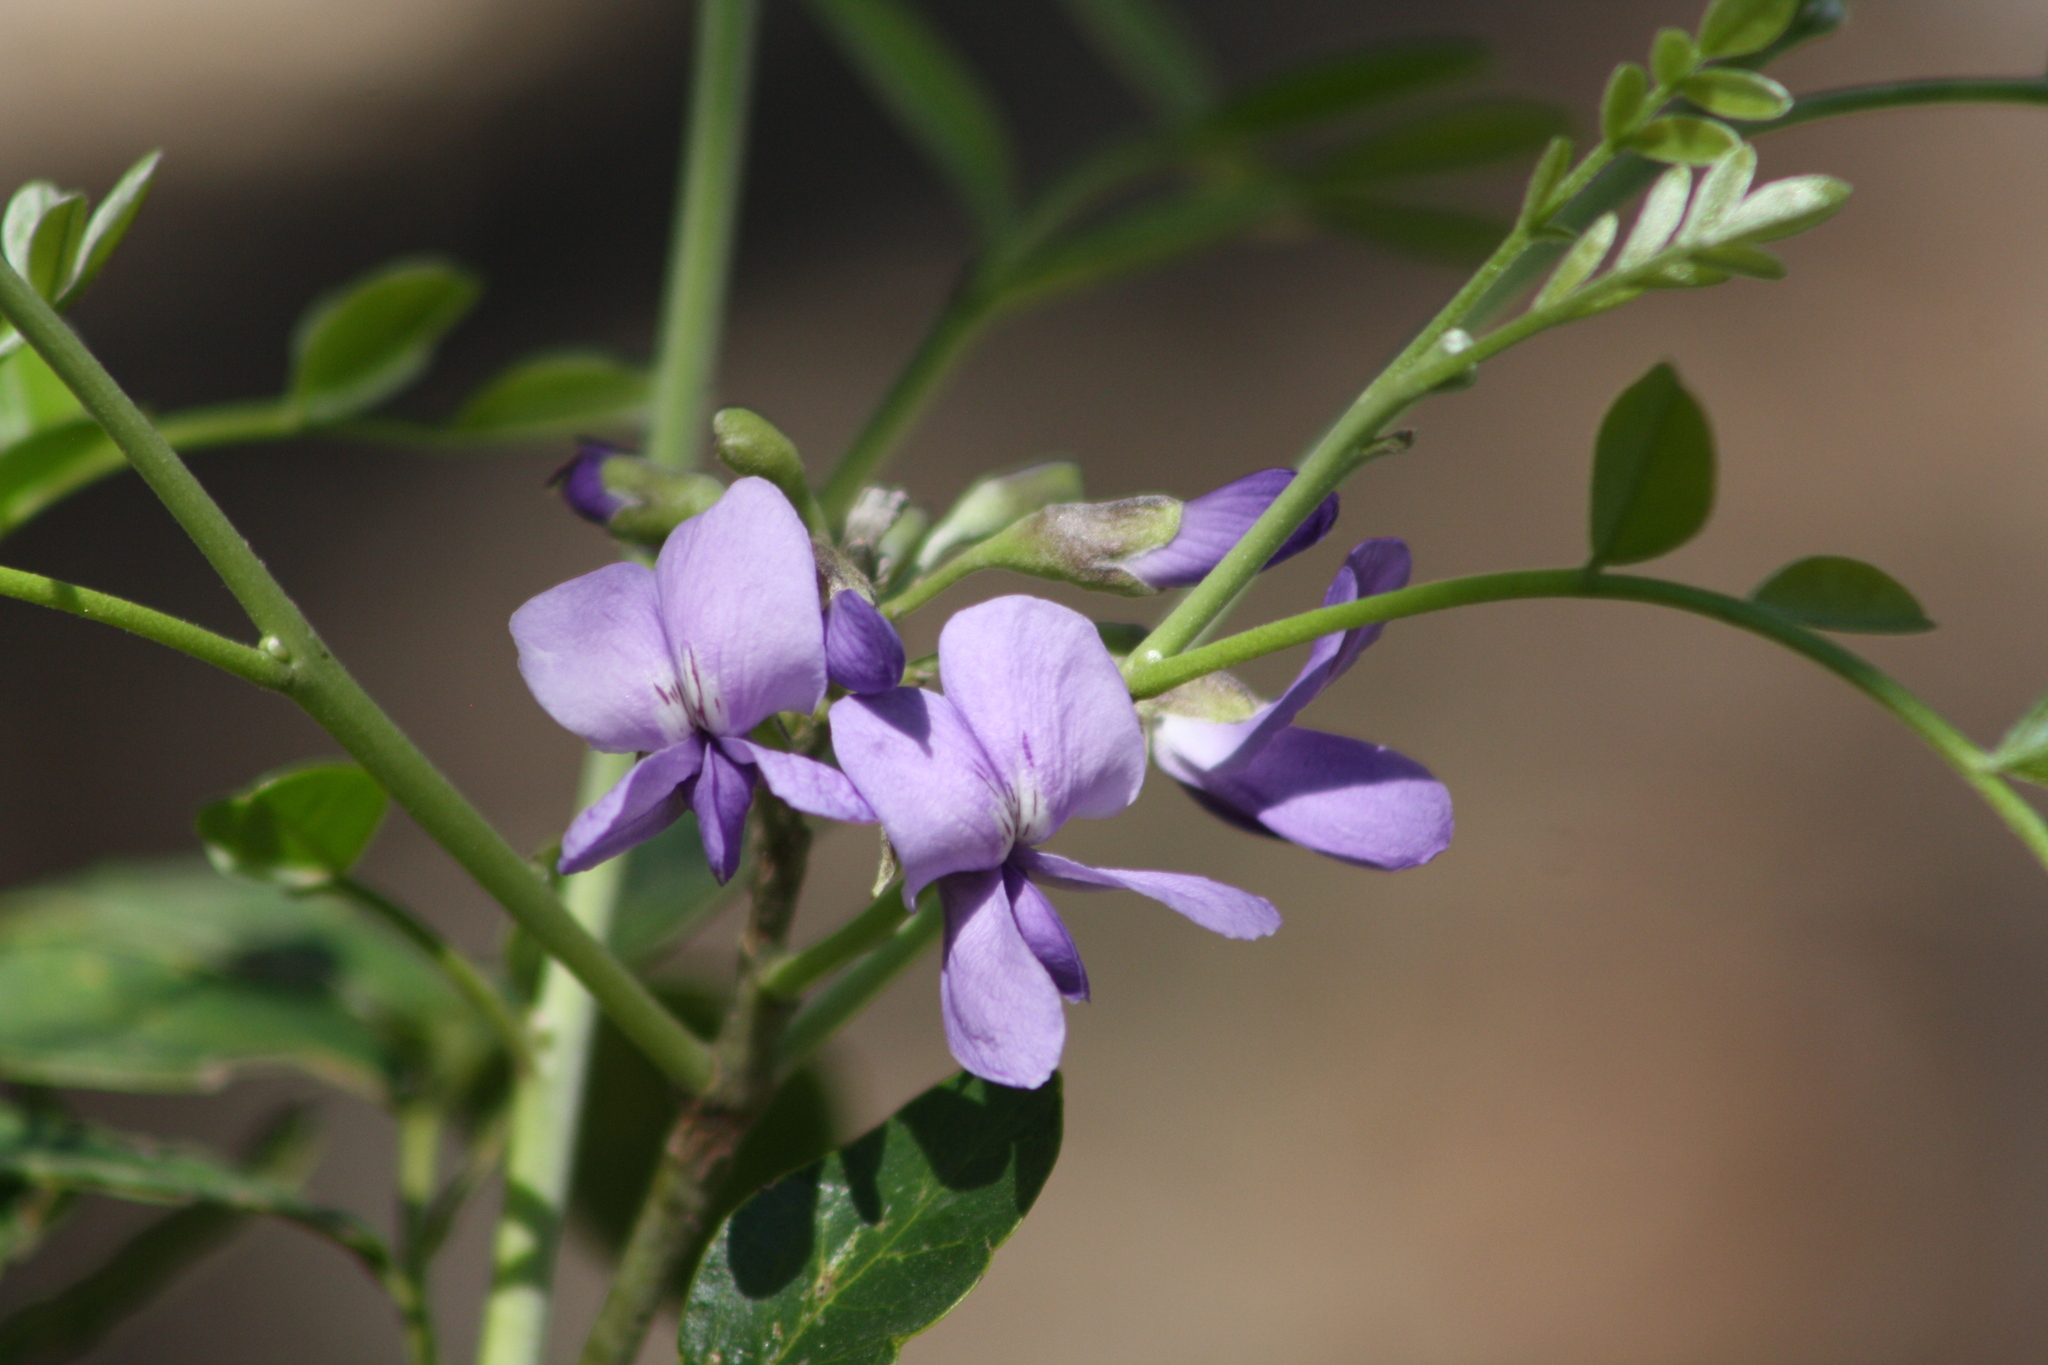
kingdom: Plantae
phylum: Tracheophyta
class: Magnoliopsida
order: Fabales
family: Fabaceae
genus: Dermatophyllum
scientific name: Dermatophyllum secundiflorum
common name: Texas-mountain-laurel
